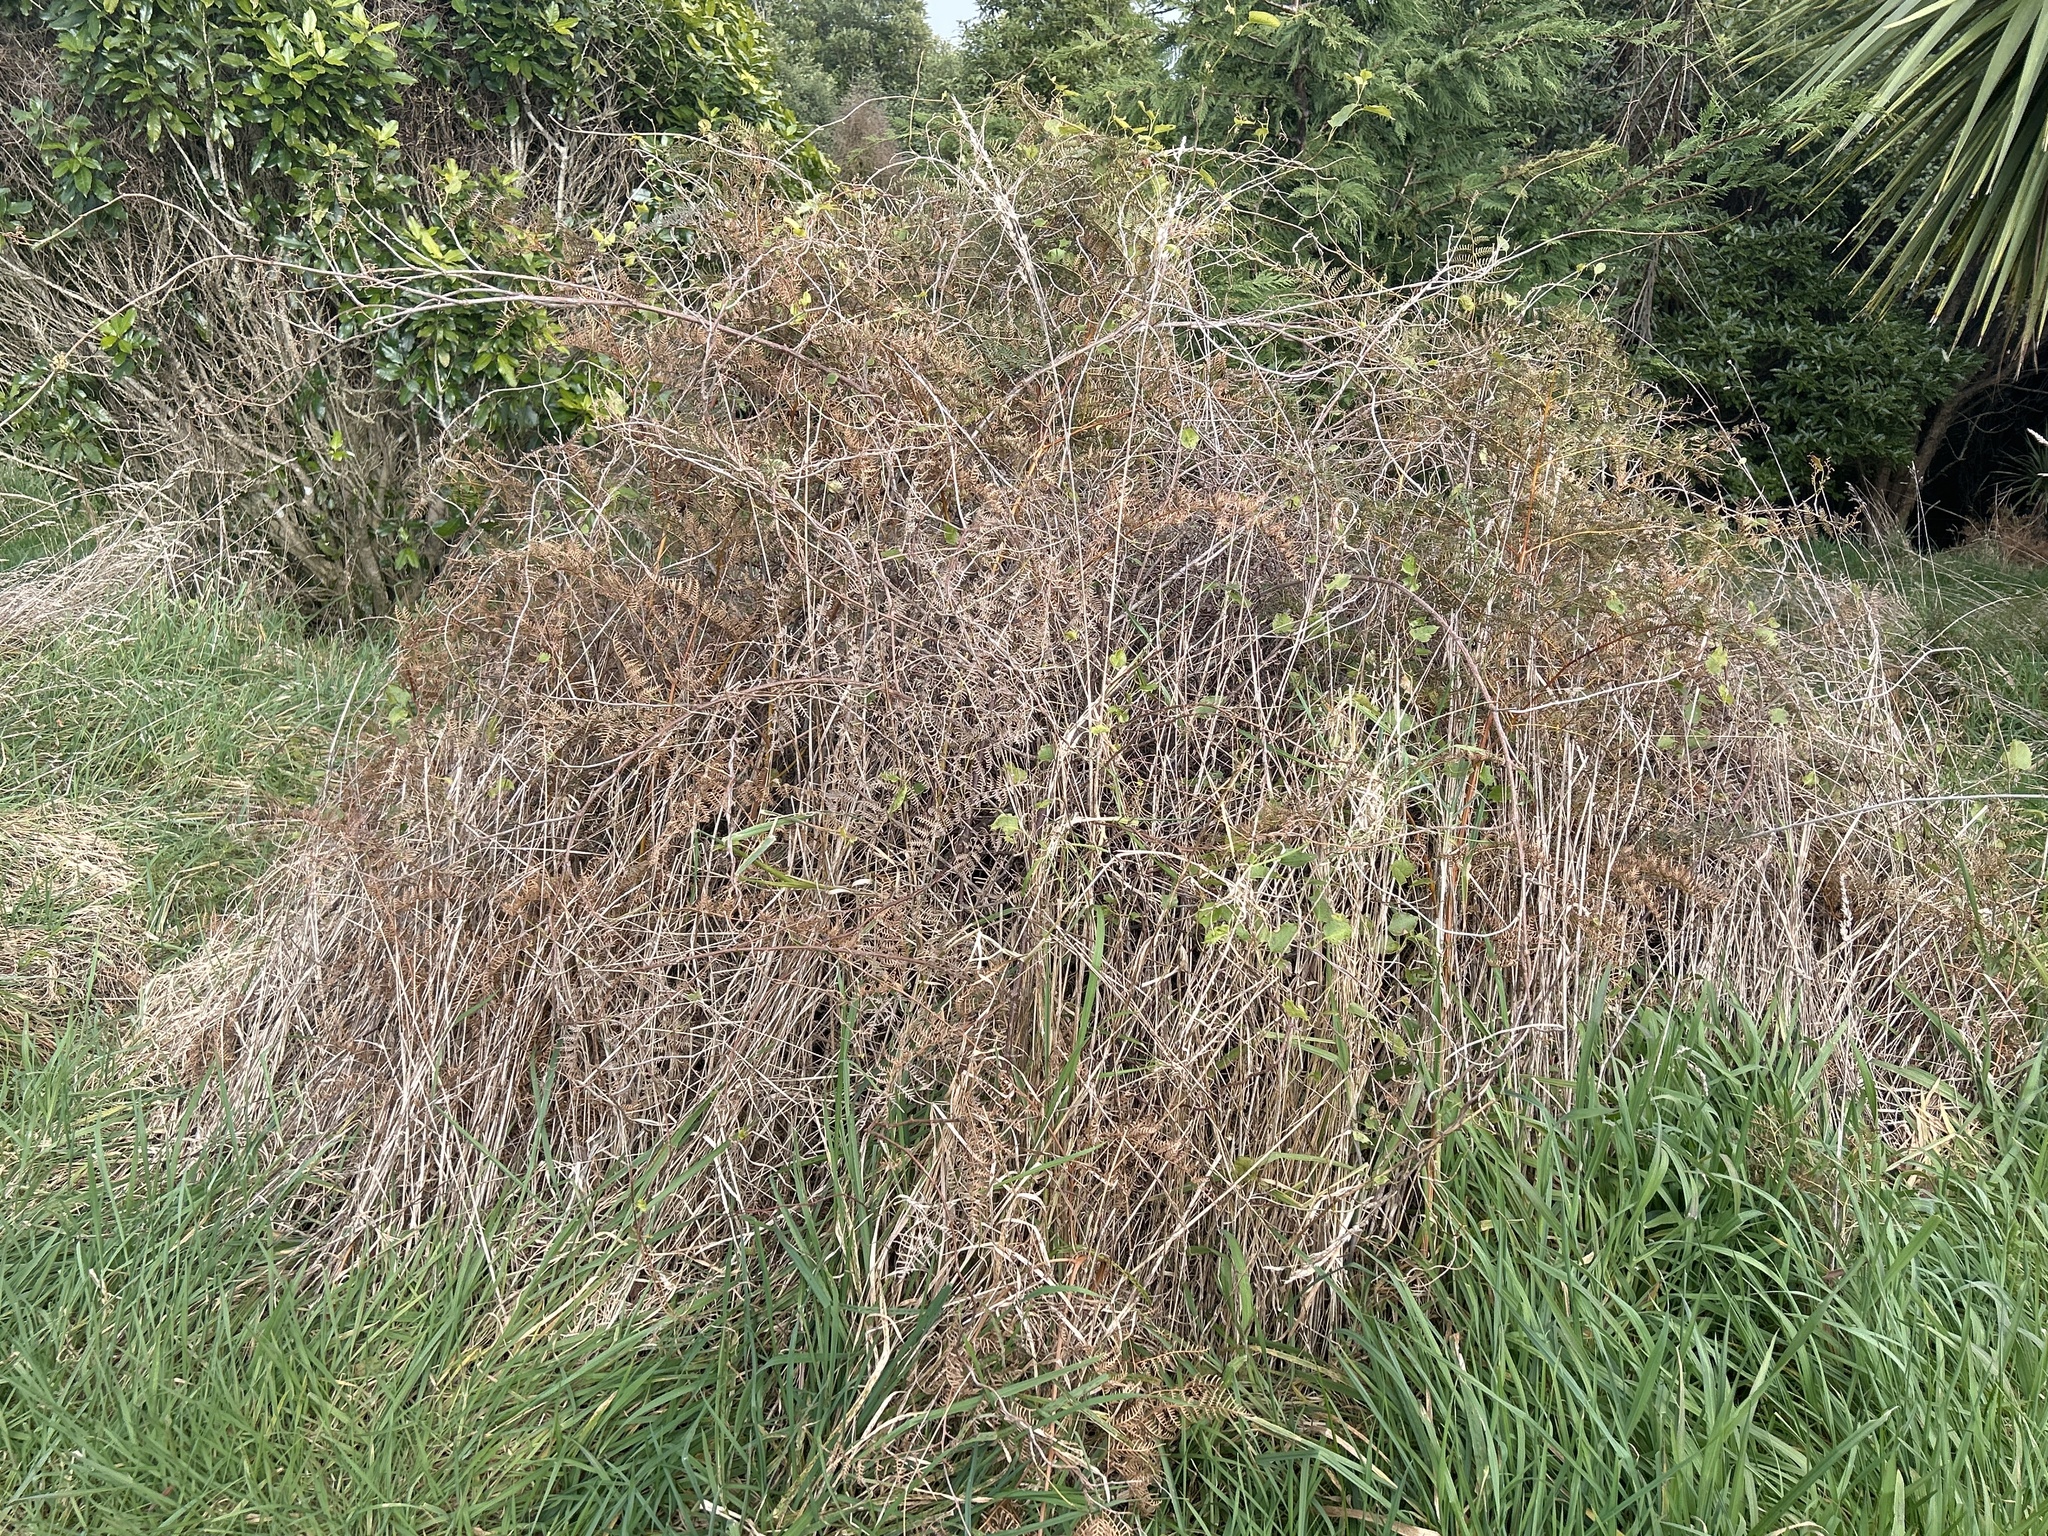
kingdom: Plantae
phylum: Tracheophyta
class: Magnoliopsida
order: Caryophyllales
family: Polygonaceae
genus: Muehlenbeckia
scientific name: Muehlenbeckia australis
